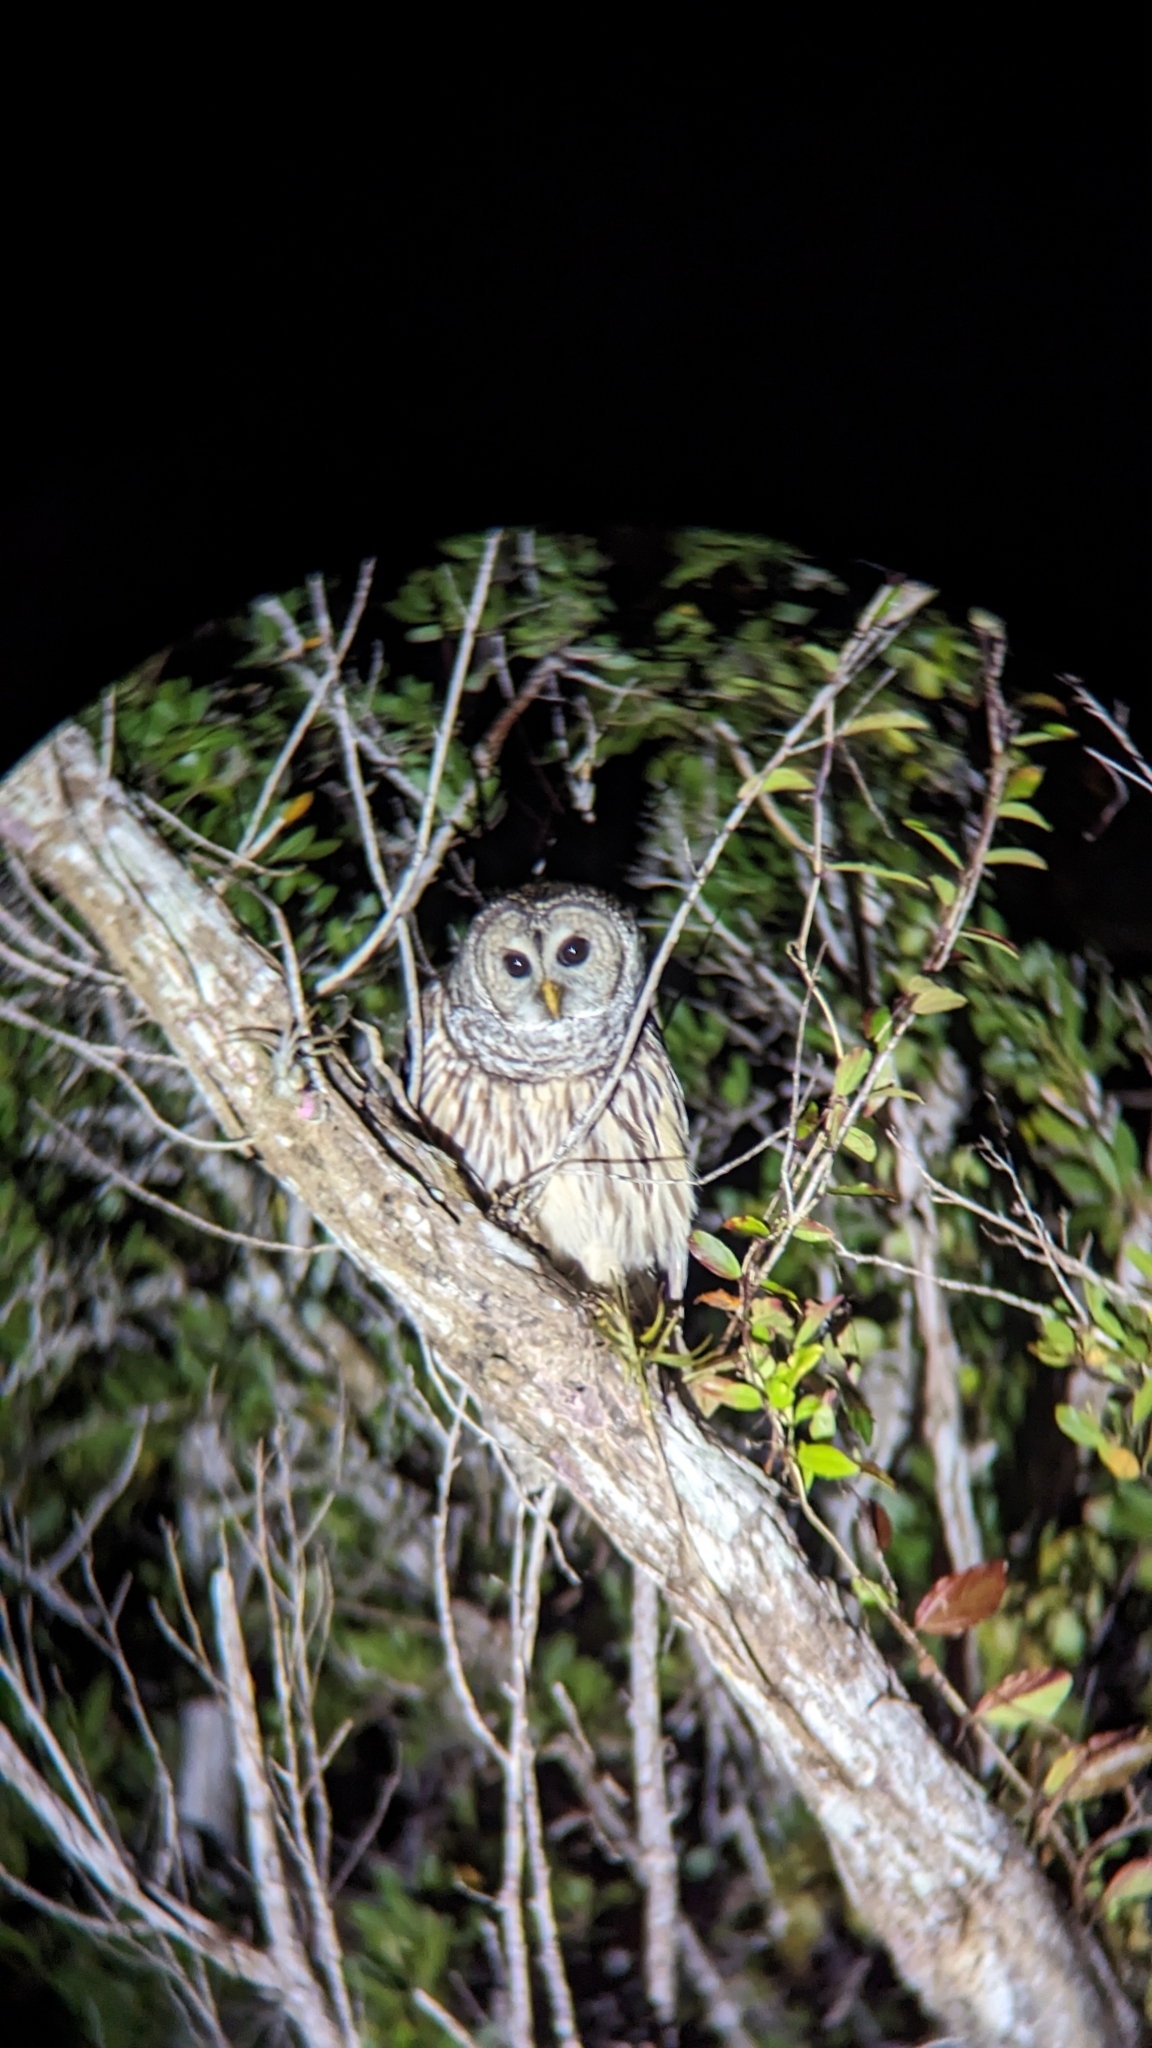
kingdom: Animalia
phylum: Chordata
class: Aves
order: Strigiformes
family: Strigidae
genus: Strix
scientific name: Strix varia
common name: Barred owl
